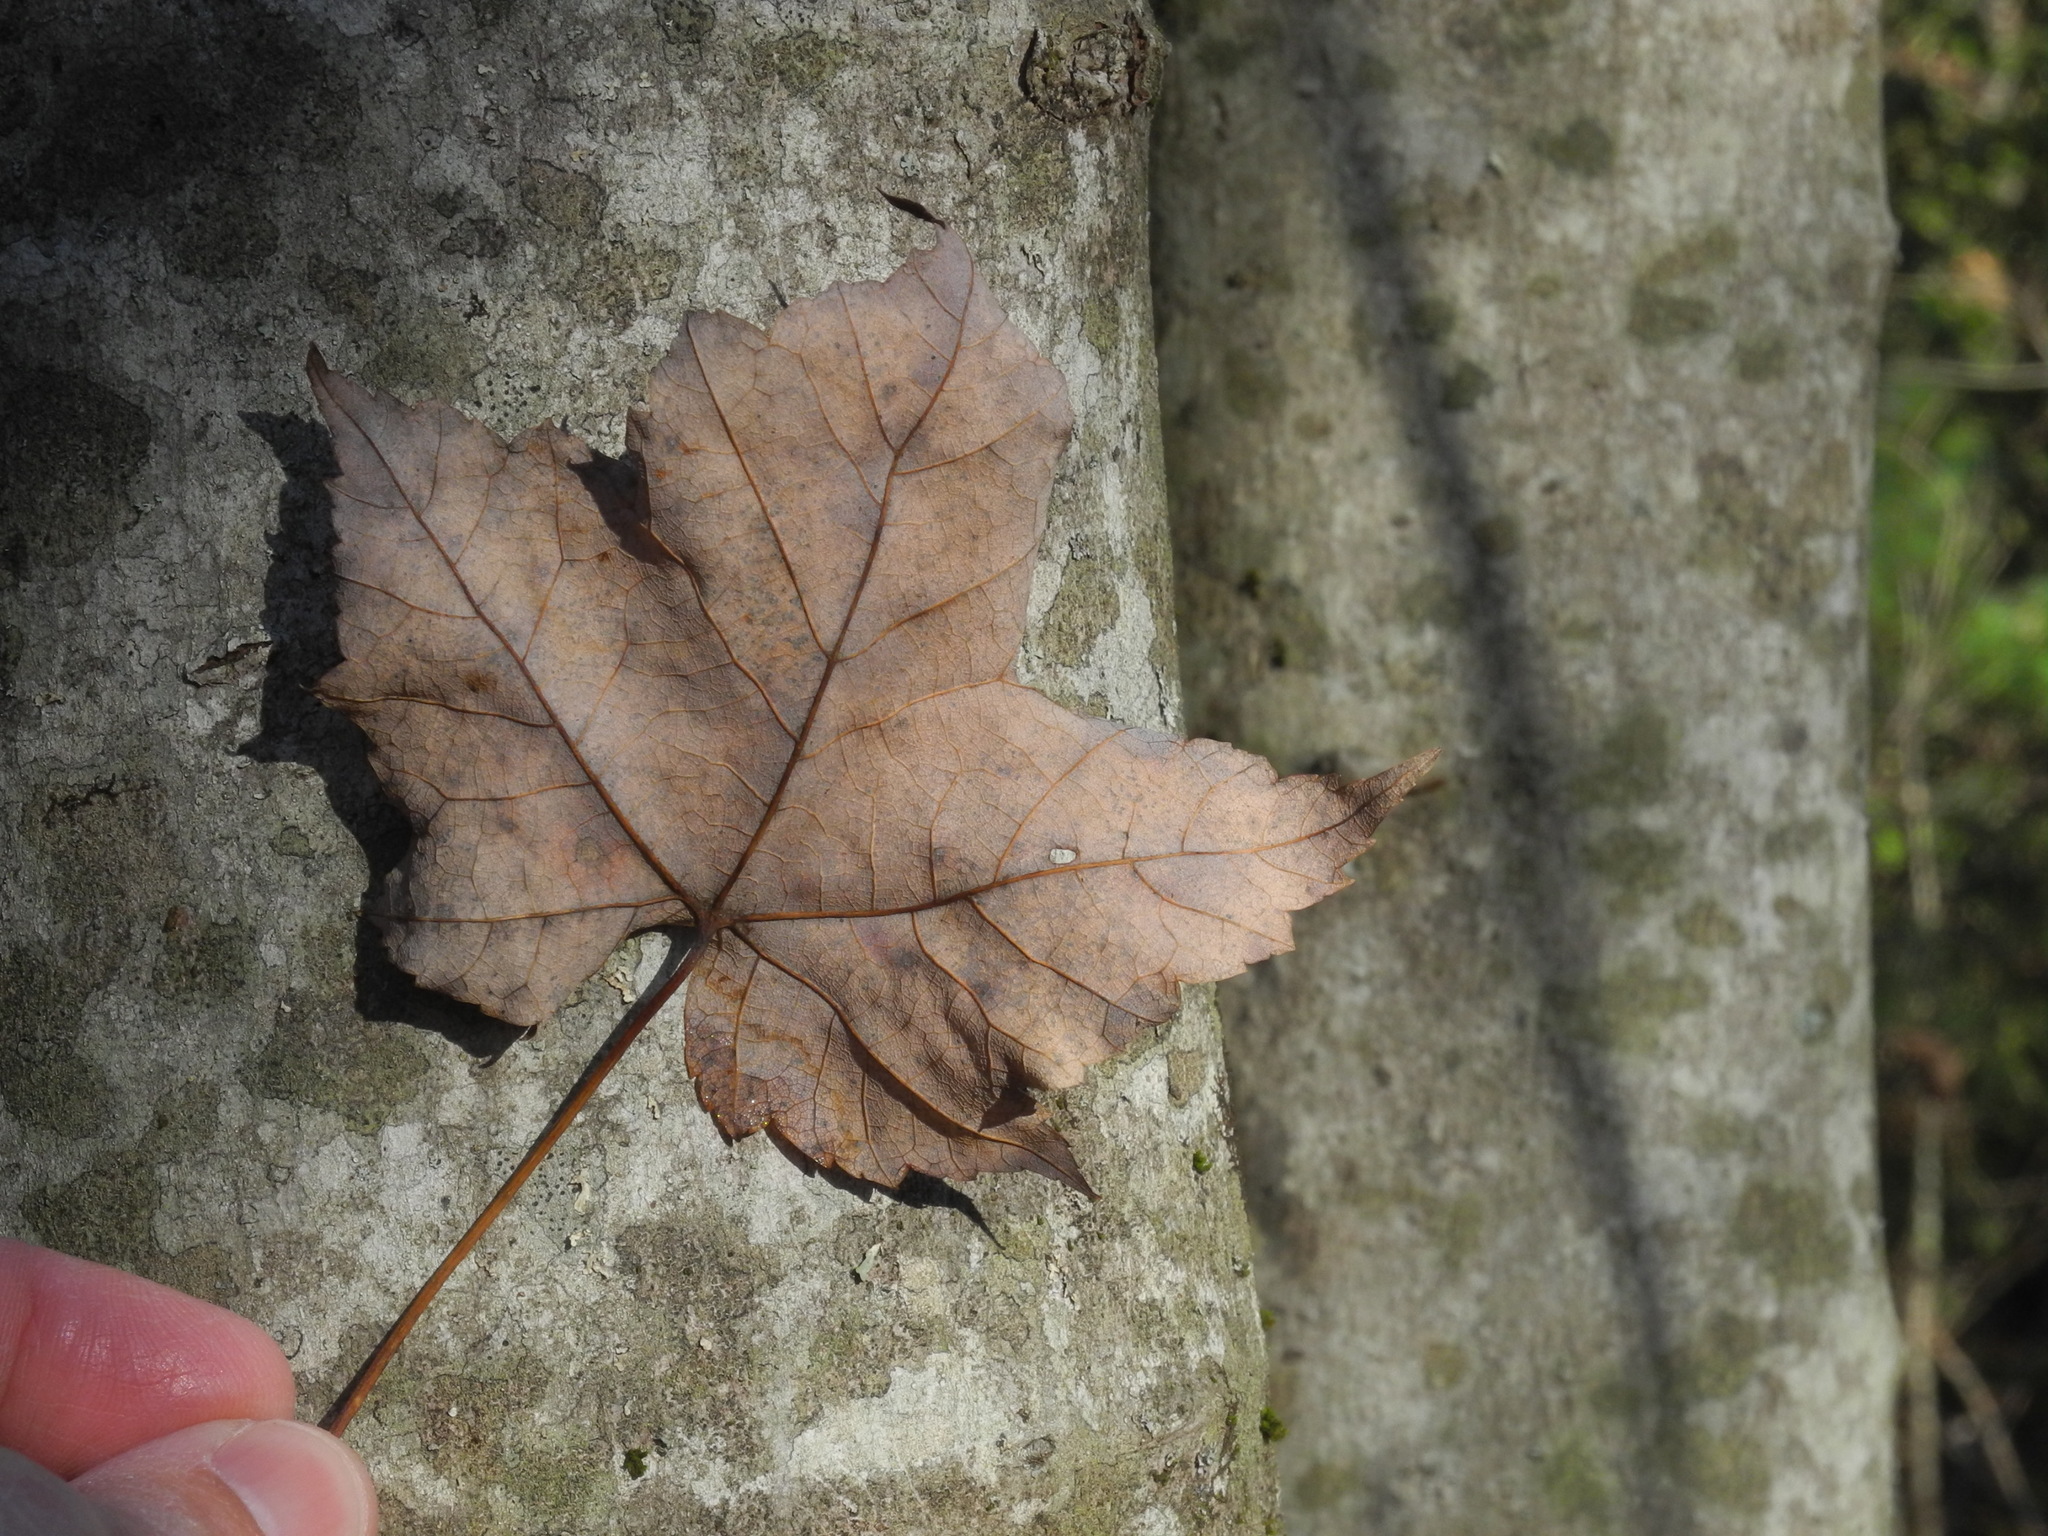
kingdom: Plantae
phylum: Tracheophyta
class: Magnoliopsida
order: Sapindales
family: Sapindaceae
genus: Acer
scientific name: Acer freemanii
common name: Freeman maple
